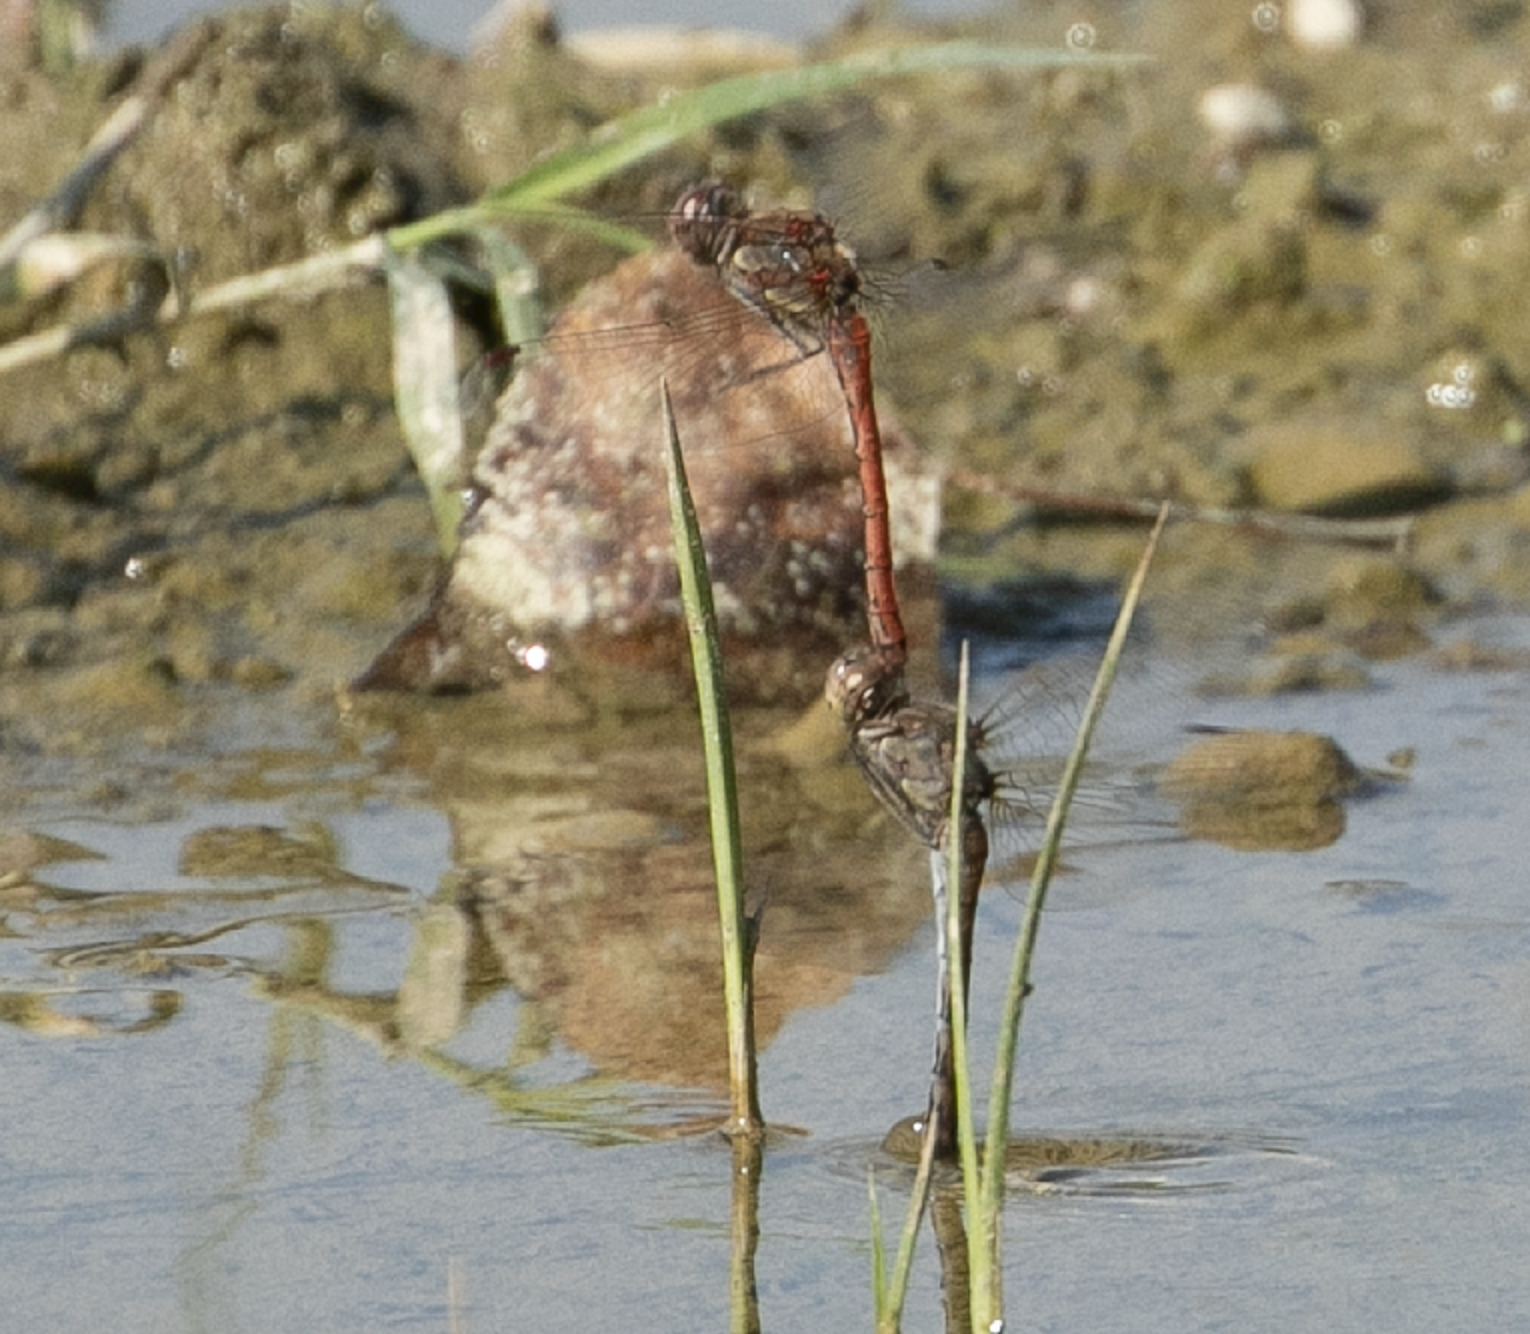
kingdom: Animalia
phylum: Arthropoda
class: Insecta
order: Odonata
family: Libellulidae
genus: Sympetrum
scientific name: Sympetrum striolatum
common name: Common darter
